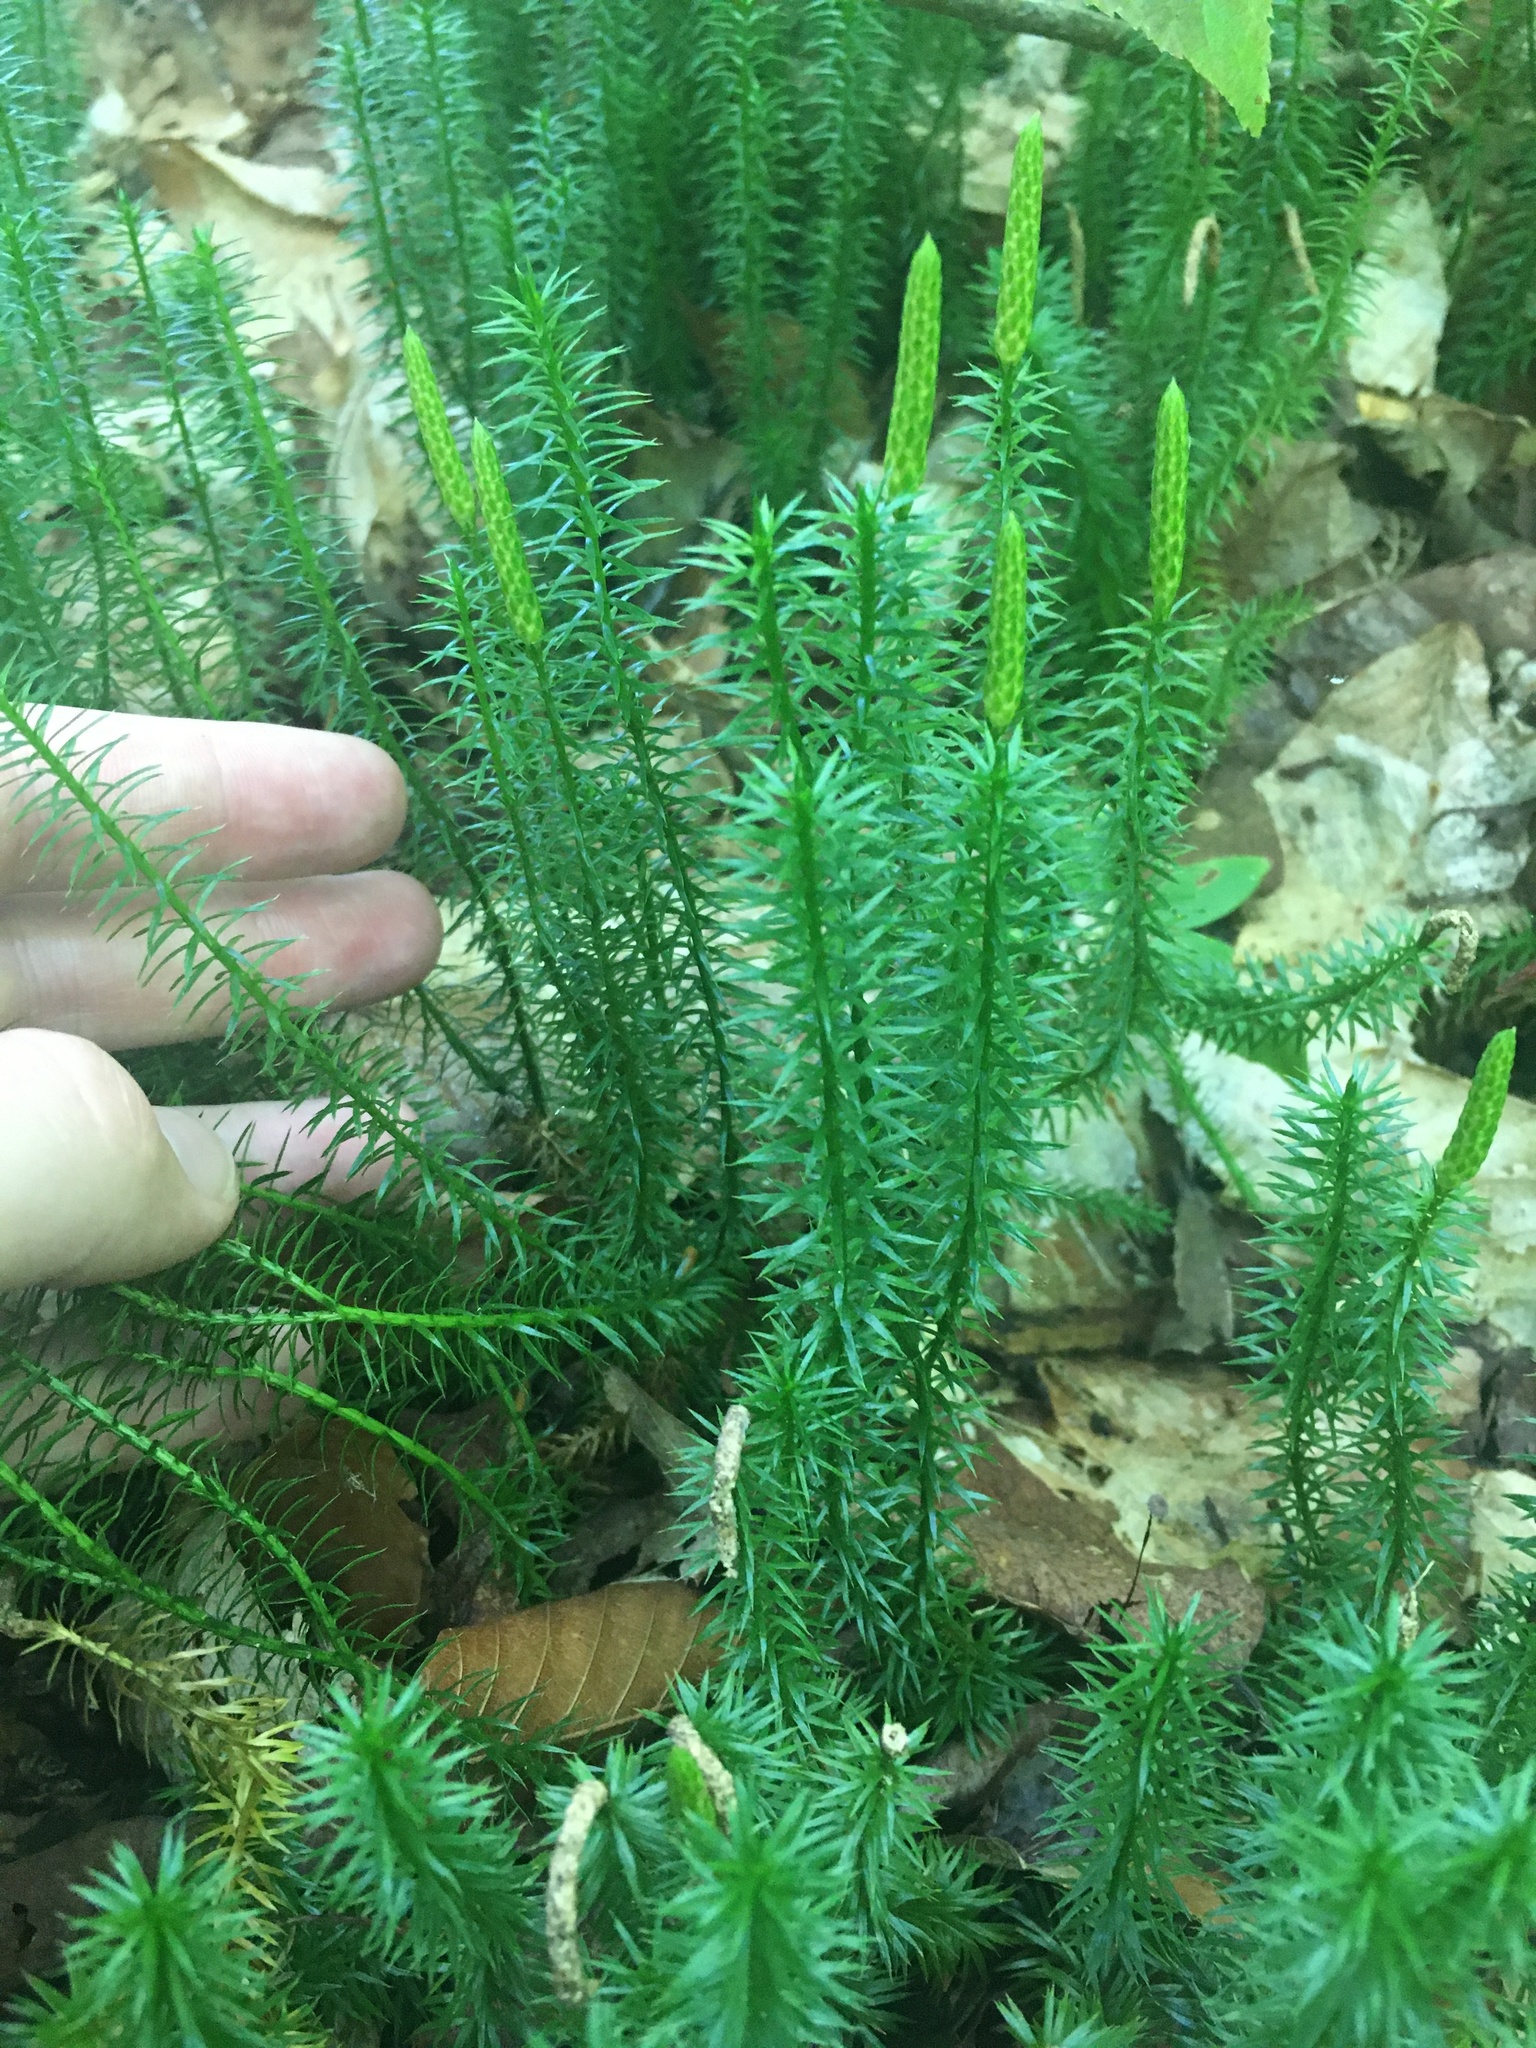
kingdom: Plantae
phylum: Tracheophyta
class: Lycopodiopsida
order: Lycopodiales
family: Lycopodiaceae
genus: Spinulum
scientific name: Spinulum annotinum
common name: Interrupted club-moss
